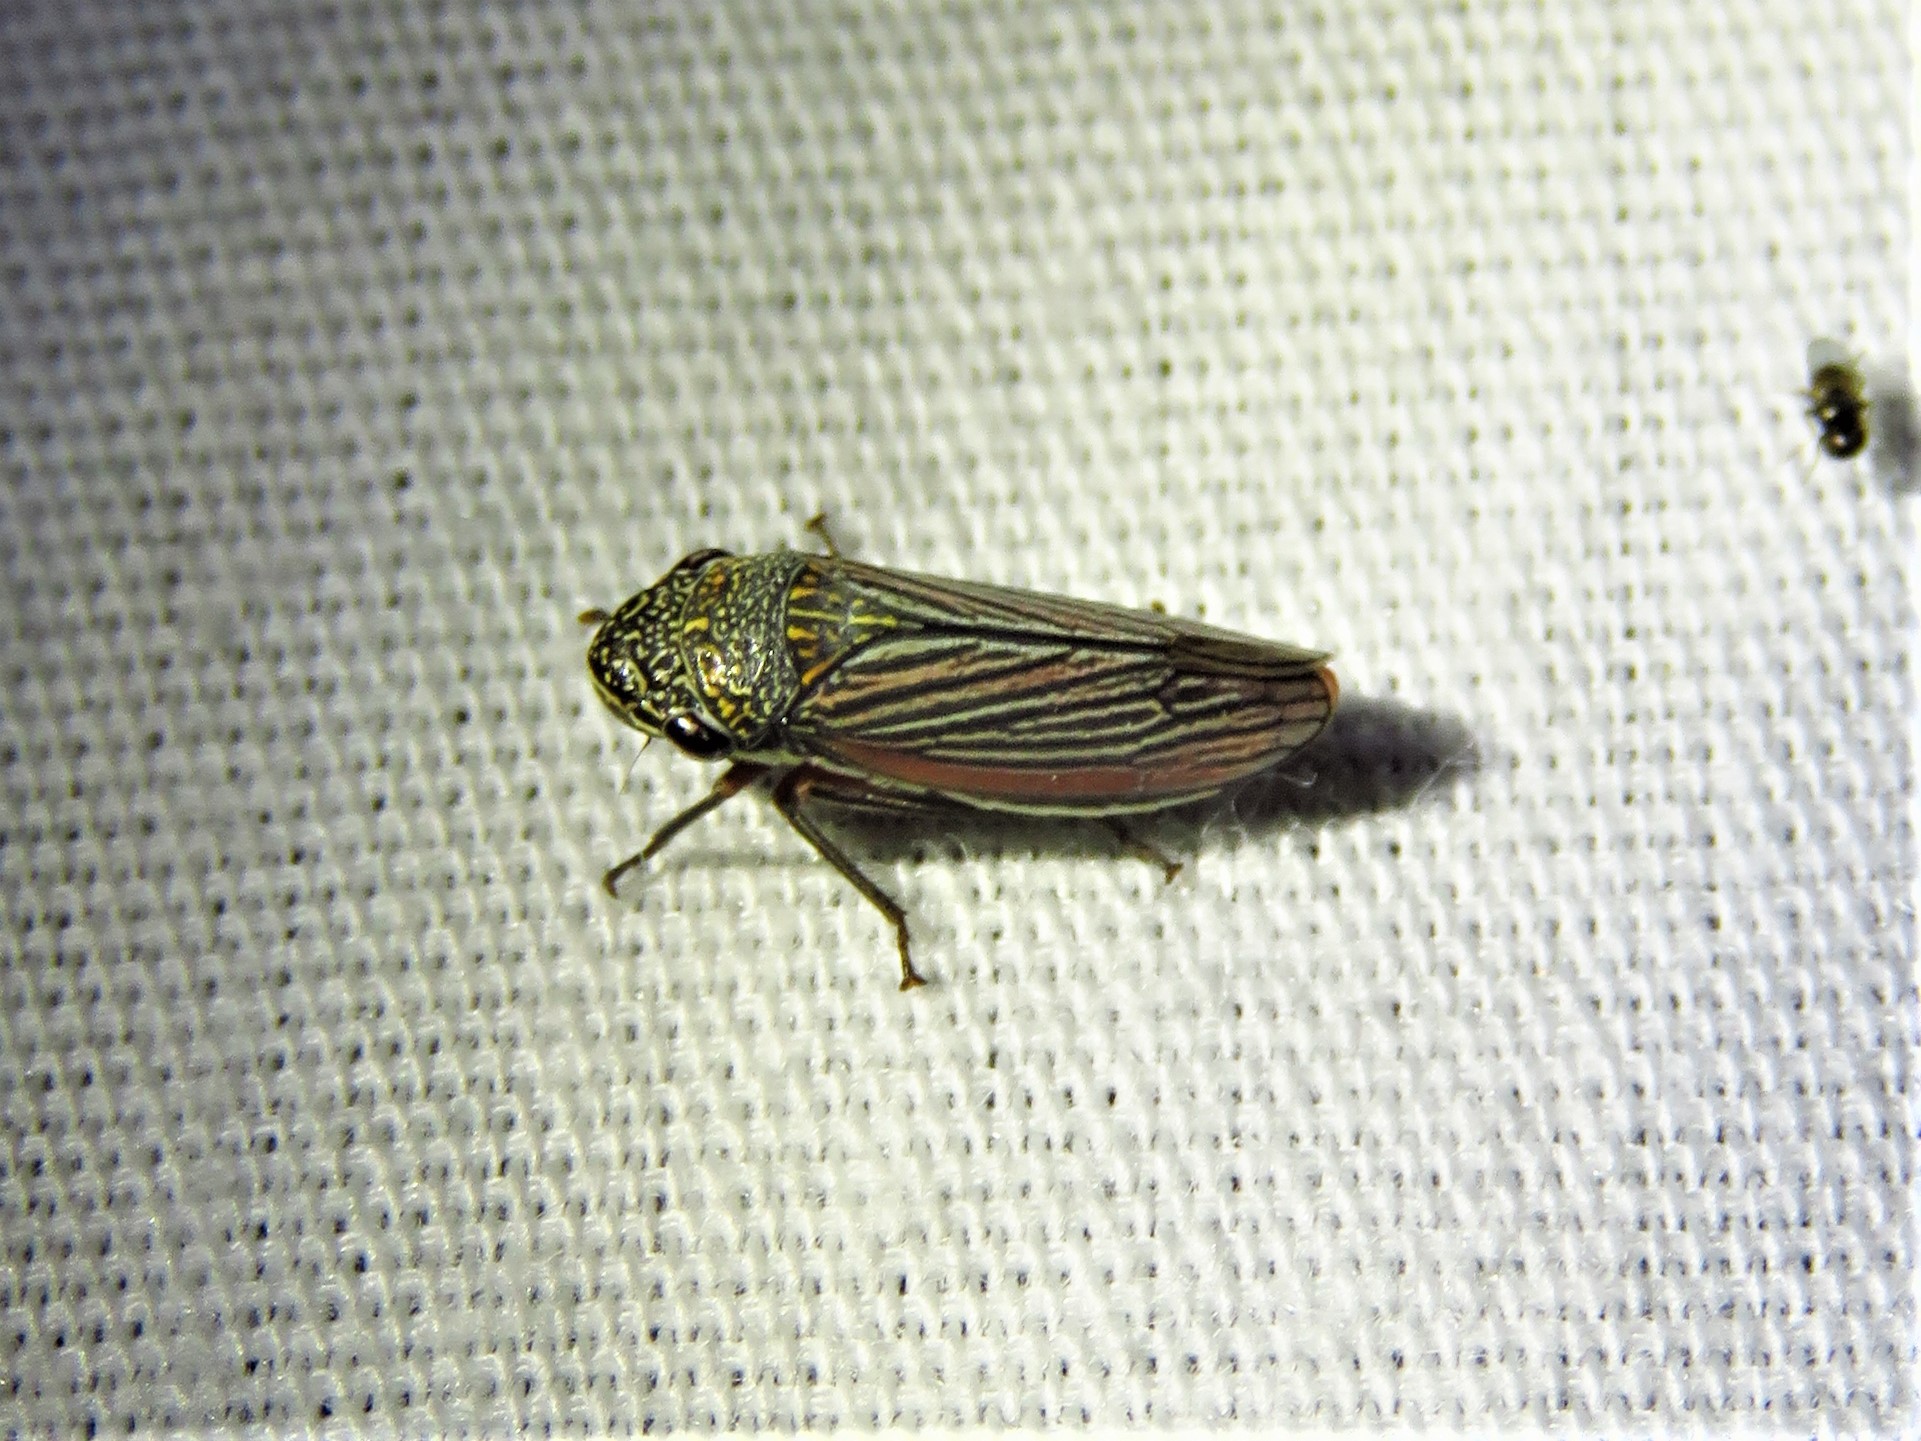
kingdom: Animalia
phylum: Arthropoda
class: Insecta
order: Hemiptera
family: Cicadellidae
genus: Cuerna
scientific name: Cuerna costalis
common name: Lateral-lined sharpshooter
